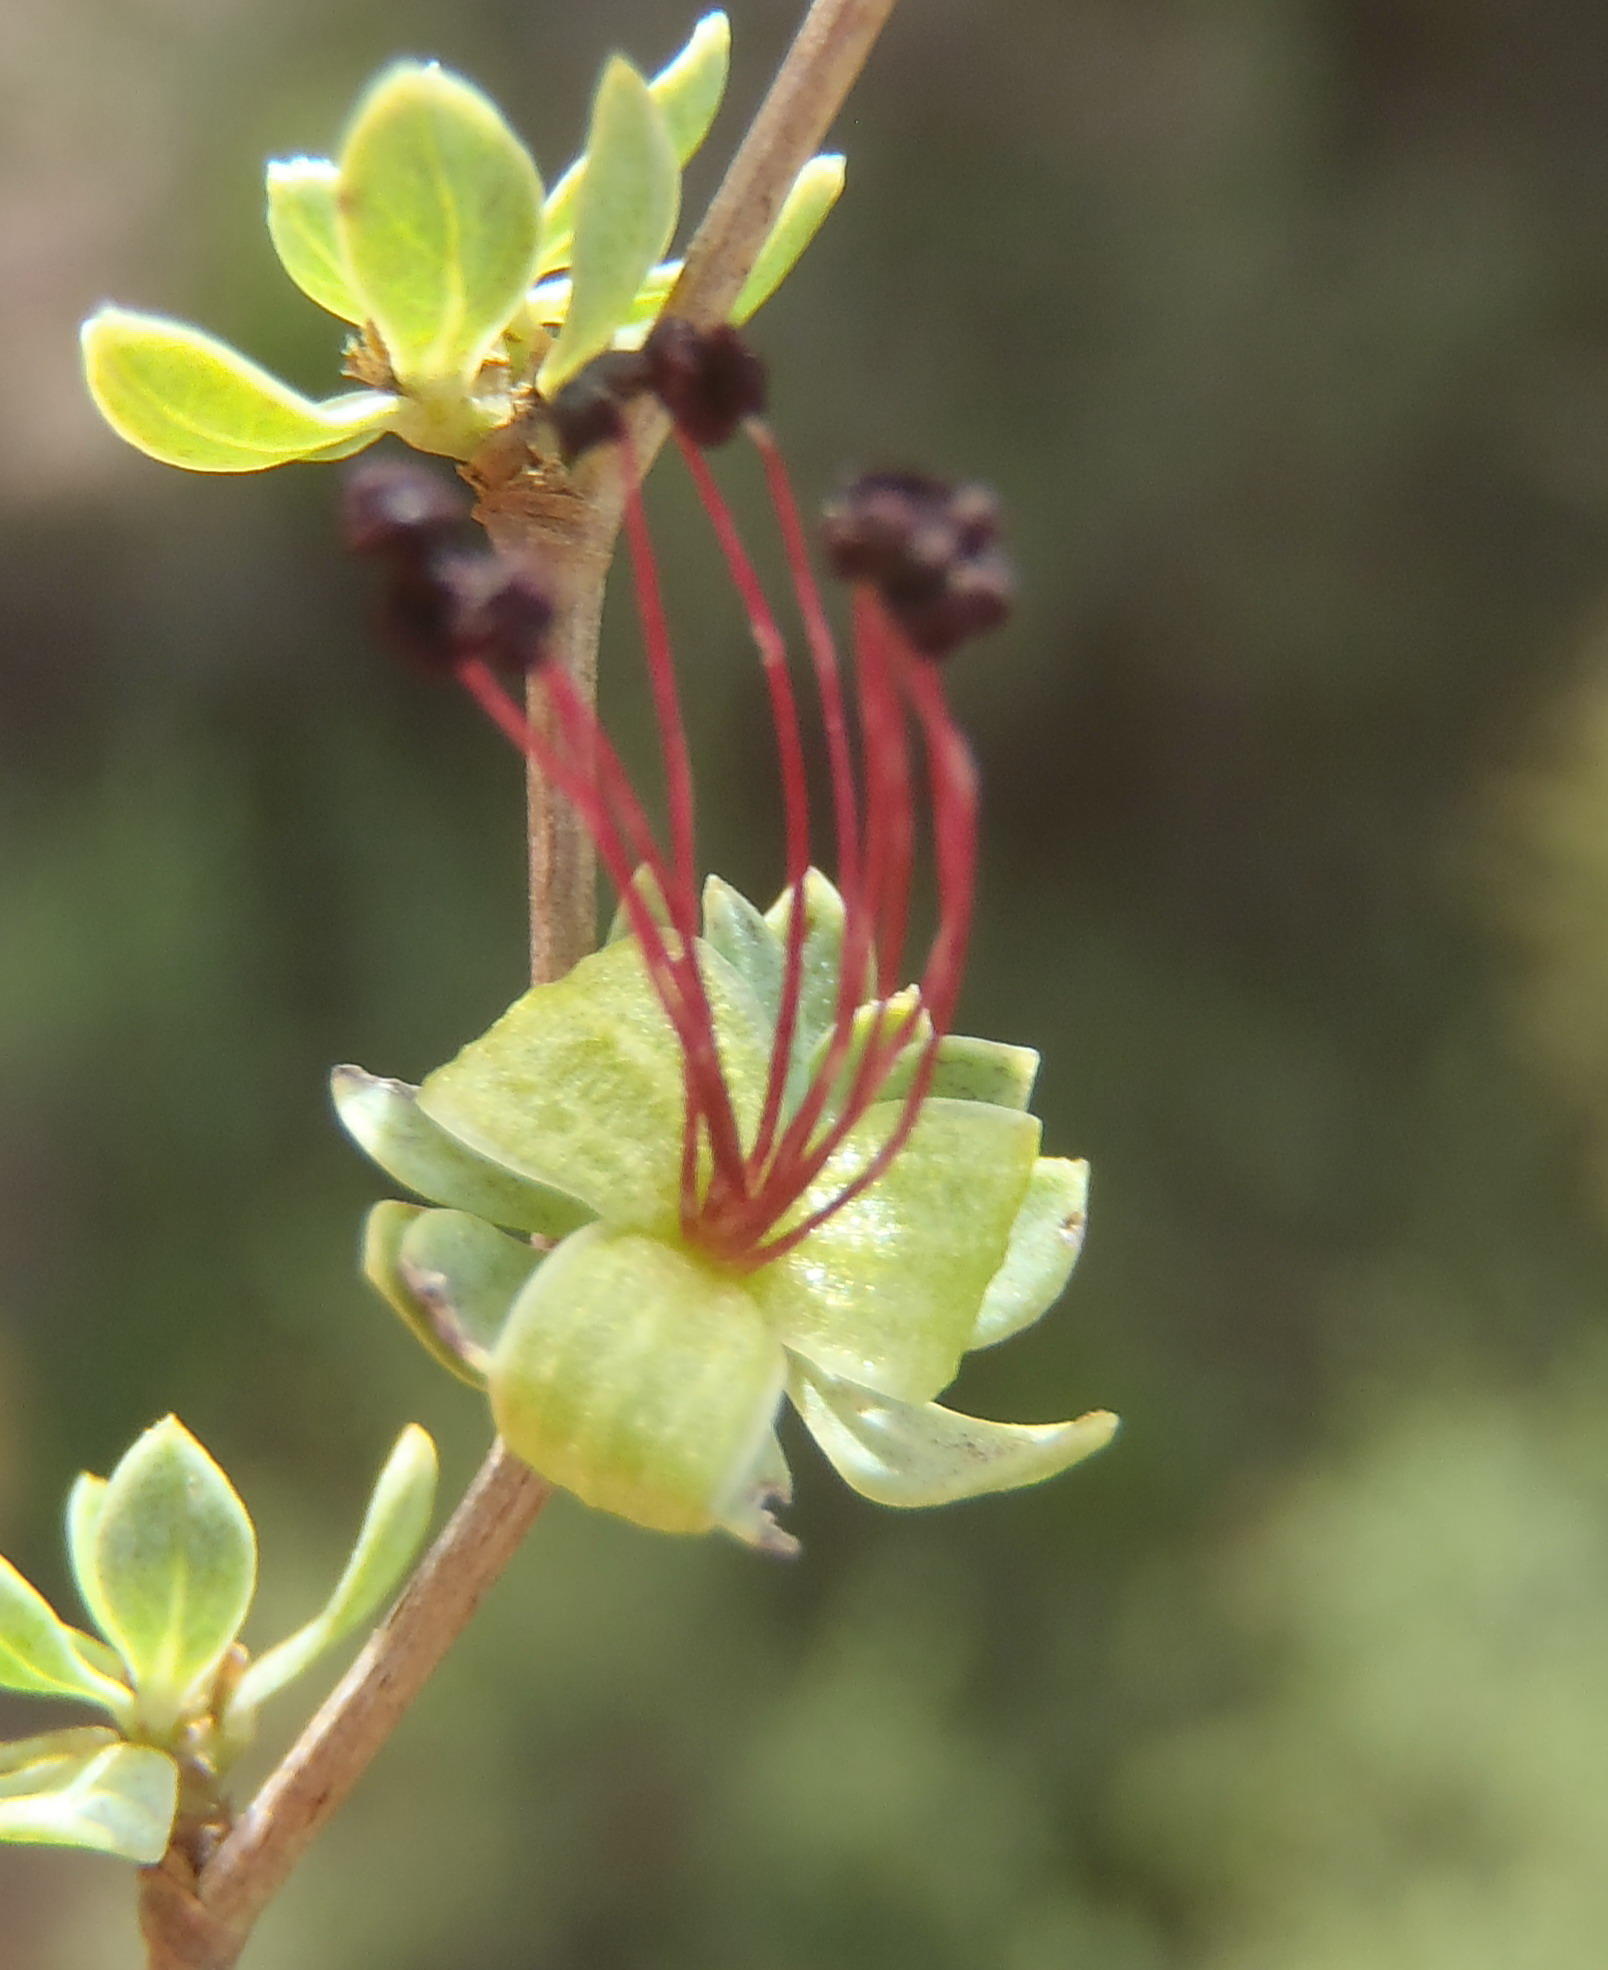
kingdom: Plantae
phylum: Tracheophyta
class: Magnoliopsida
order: Rosales
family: Rosaceae
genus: Cliffortia
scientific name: Cliffortia obovata
